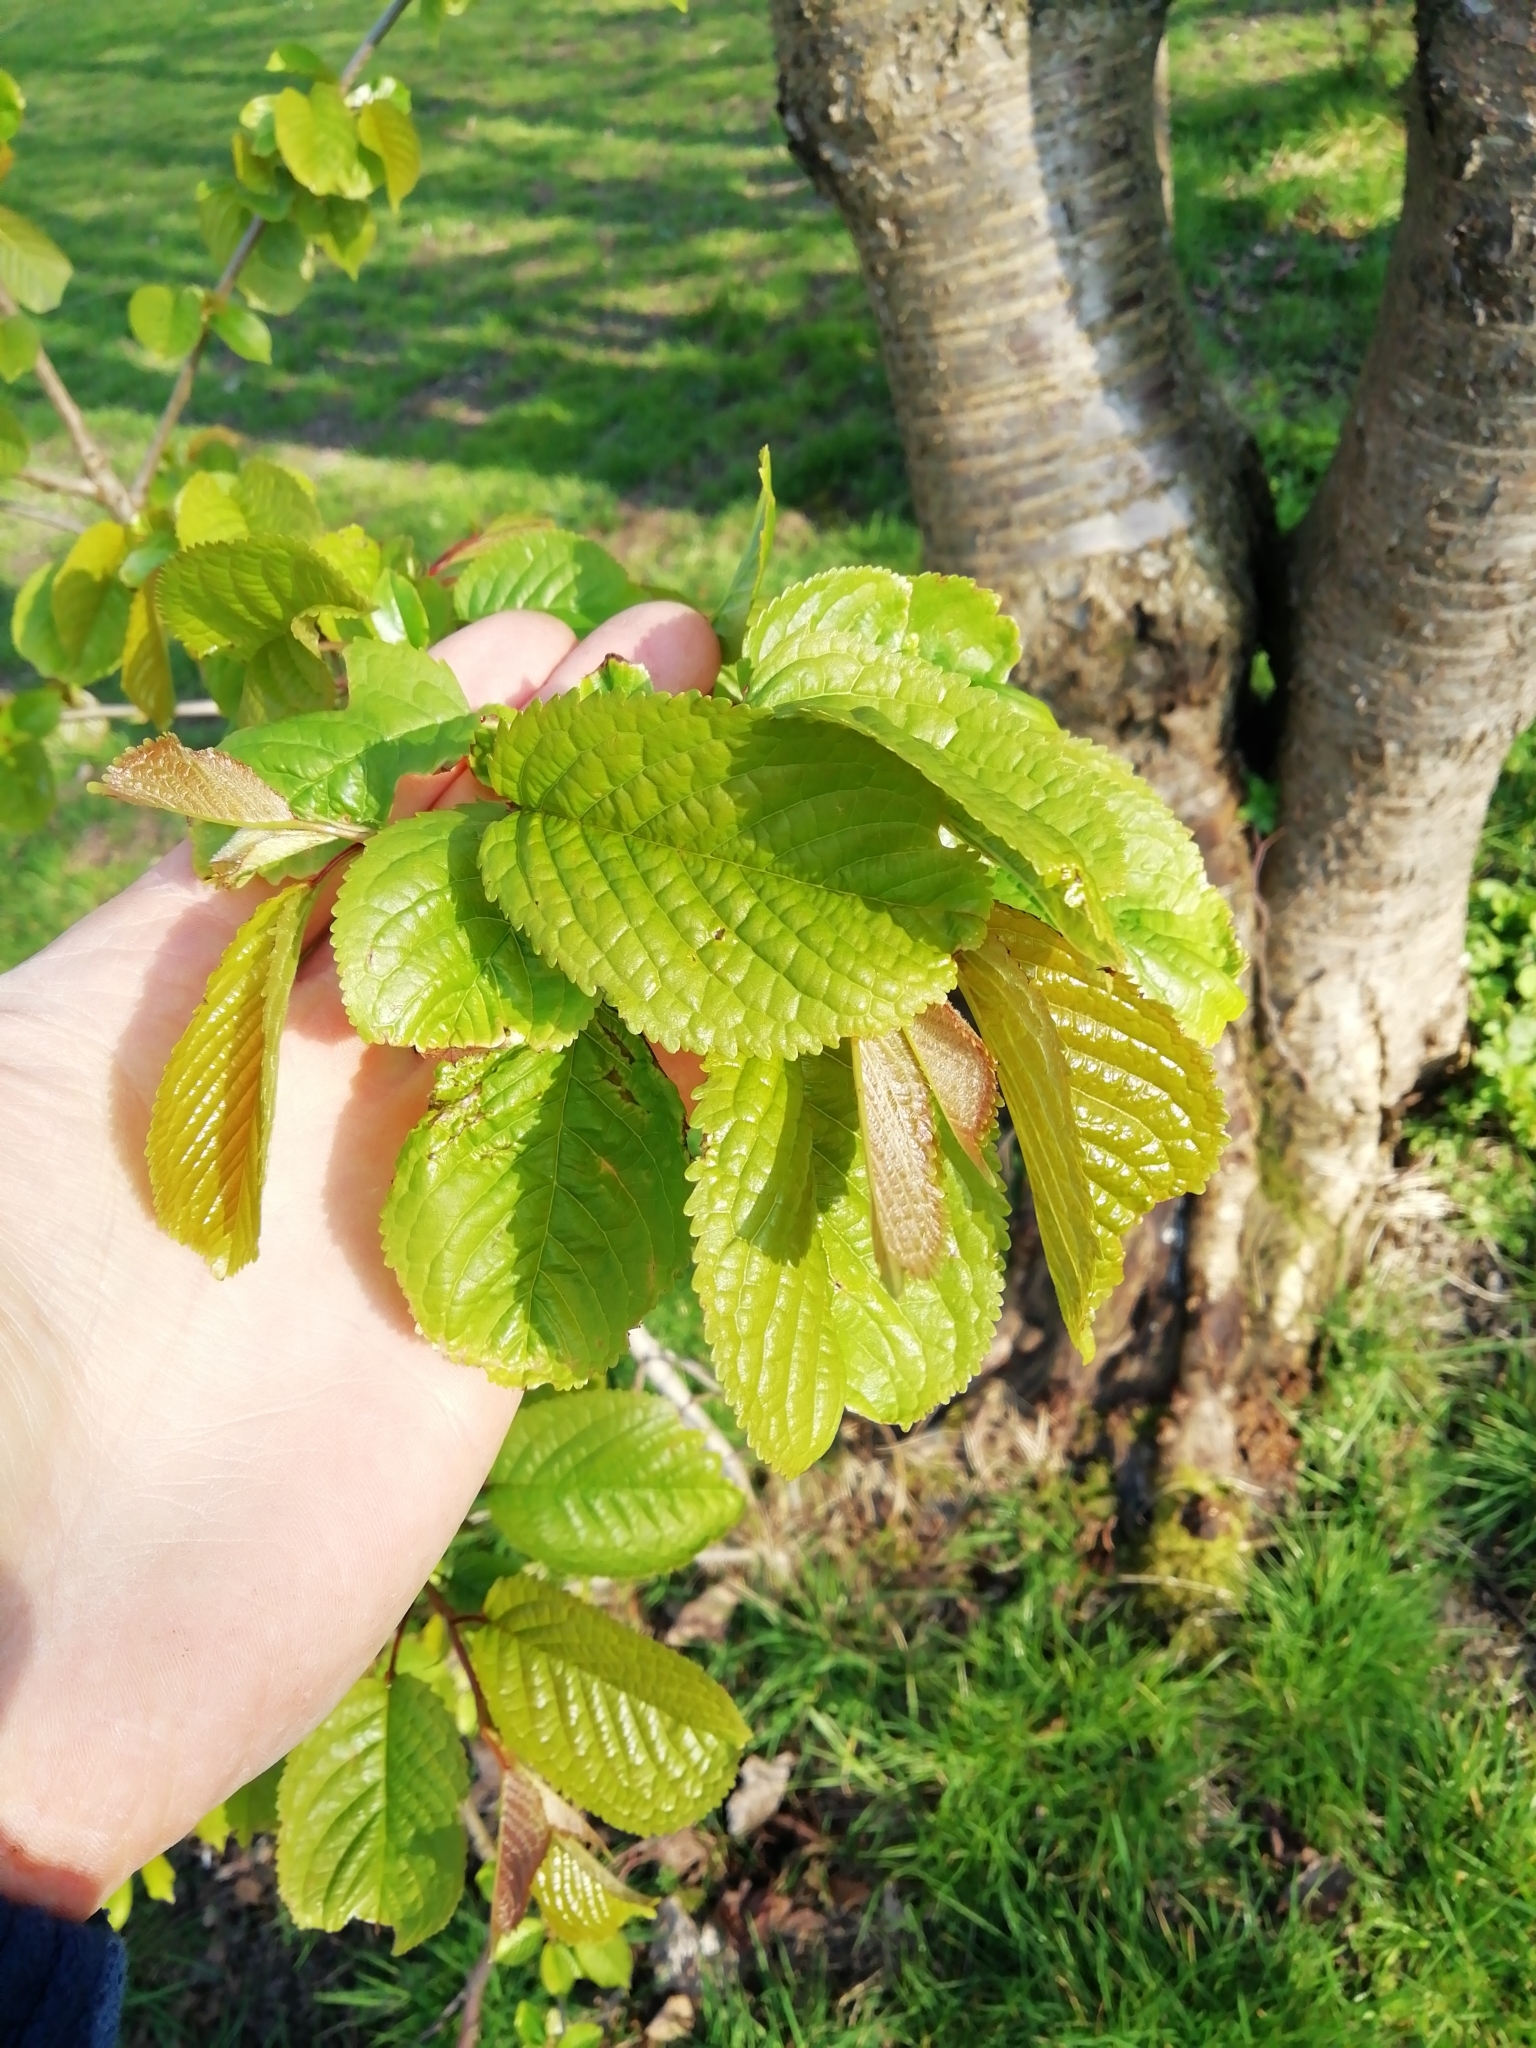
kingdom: Plantae
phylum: Tracheophyta
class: Magnoliopsida
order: Rosales
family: Rosaceae
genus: Prunus
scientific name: Prunus avium
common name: Sweet cherry
